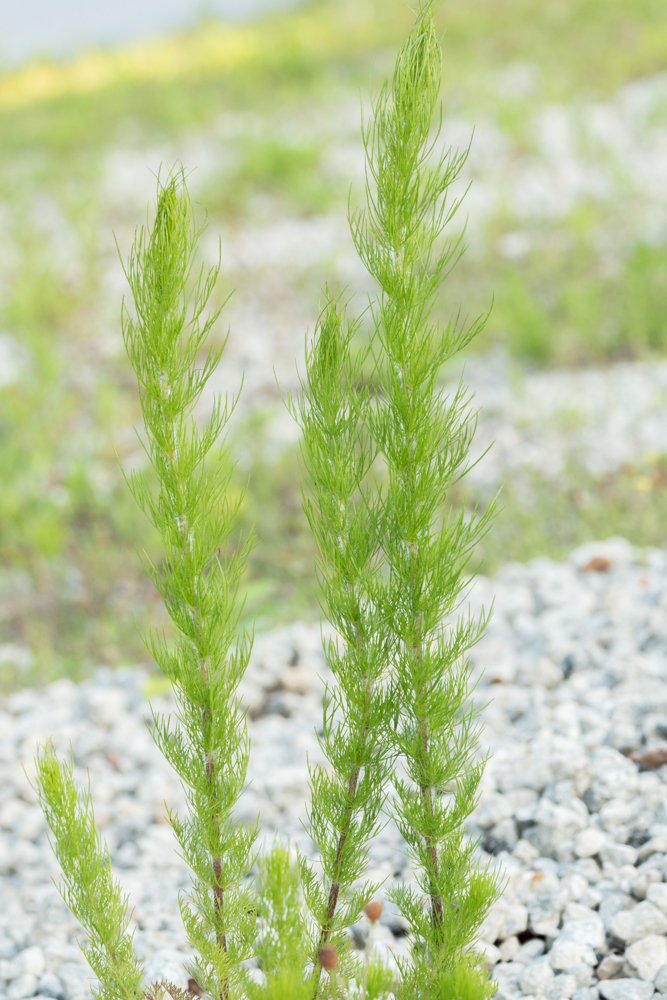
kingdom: Plantae
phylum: Tracheophyta
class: Magnoliopsida
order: Asterales
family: Asteraceae
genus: Eupatorium
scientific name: Eupatorium capillifolium
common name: Dog-fennel
